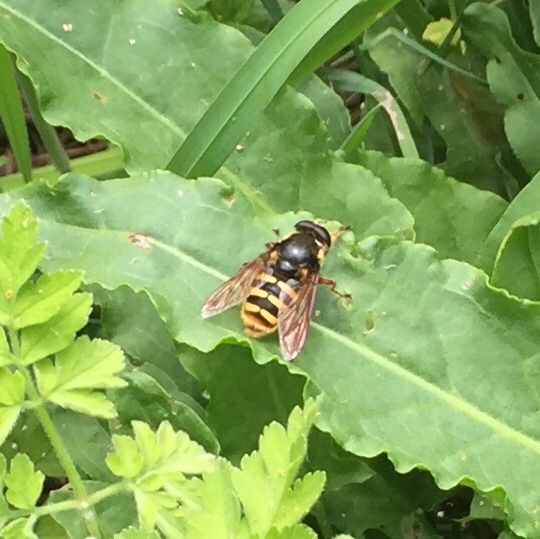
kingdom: Animalia
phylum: Arthropoda
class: Insecta
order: Diptera
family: Syrphidae
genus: Sericomyia
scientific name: Sericomyia silentis
